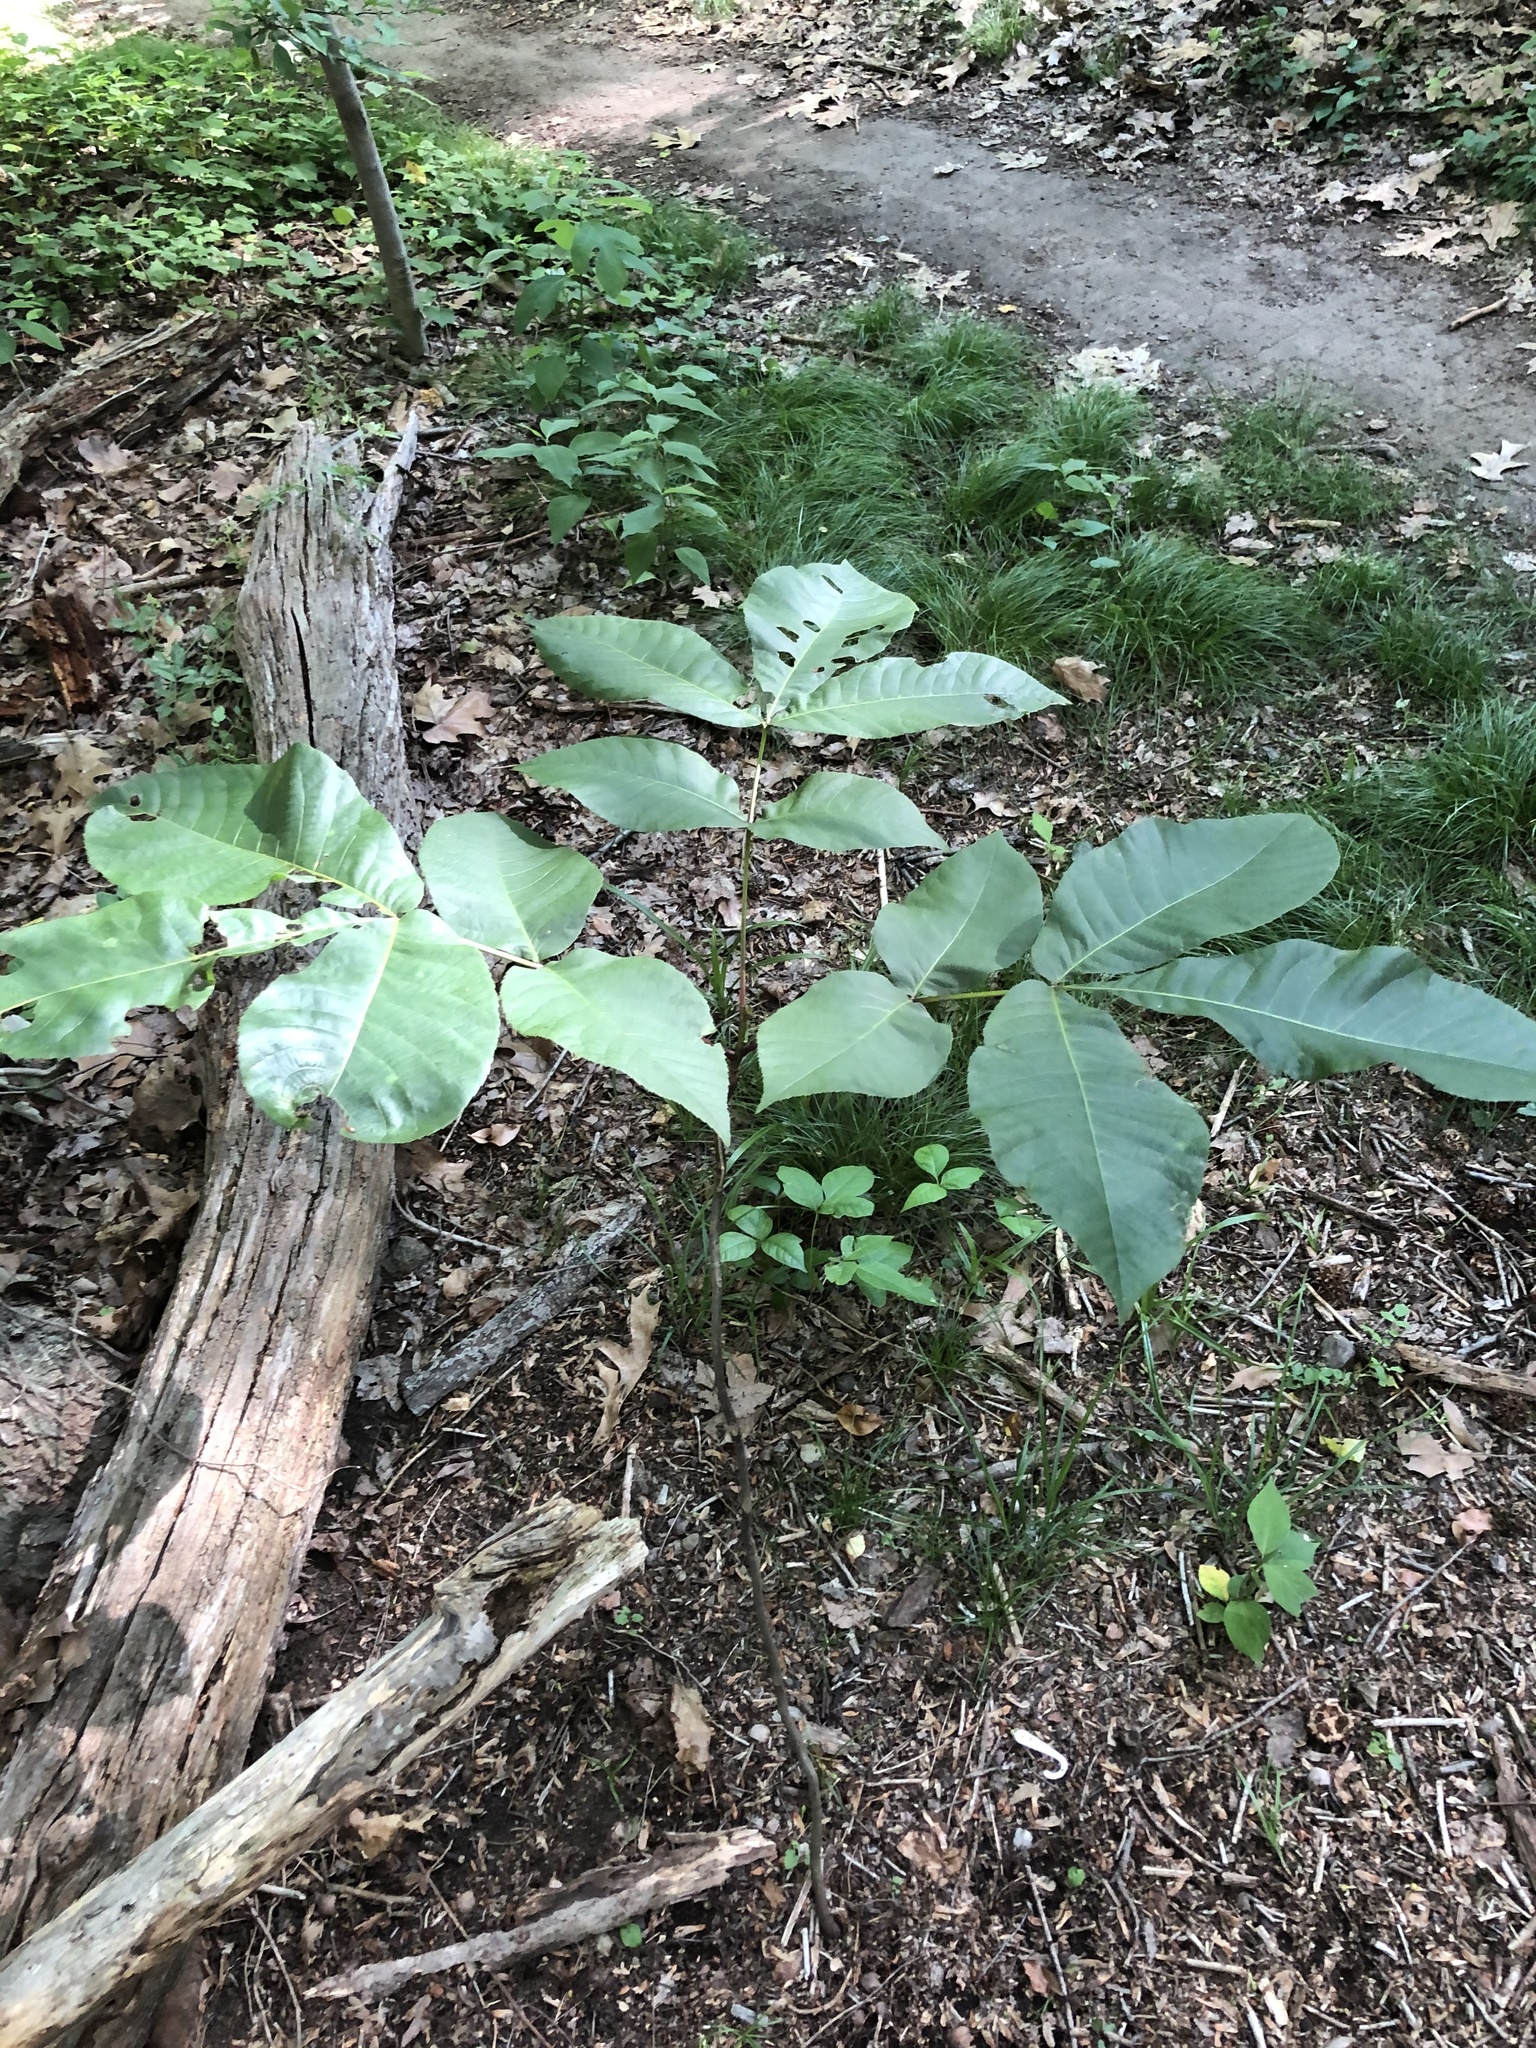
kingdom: Plantae
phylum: Tracheophyta
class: Magnoliopsida
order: Lamiales
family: Oleaceae
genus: Fraxinus
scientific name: Fraxinus pennsylvanica
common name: Green ash
